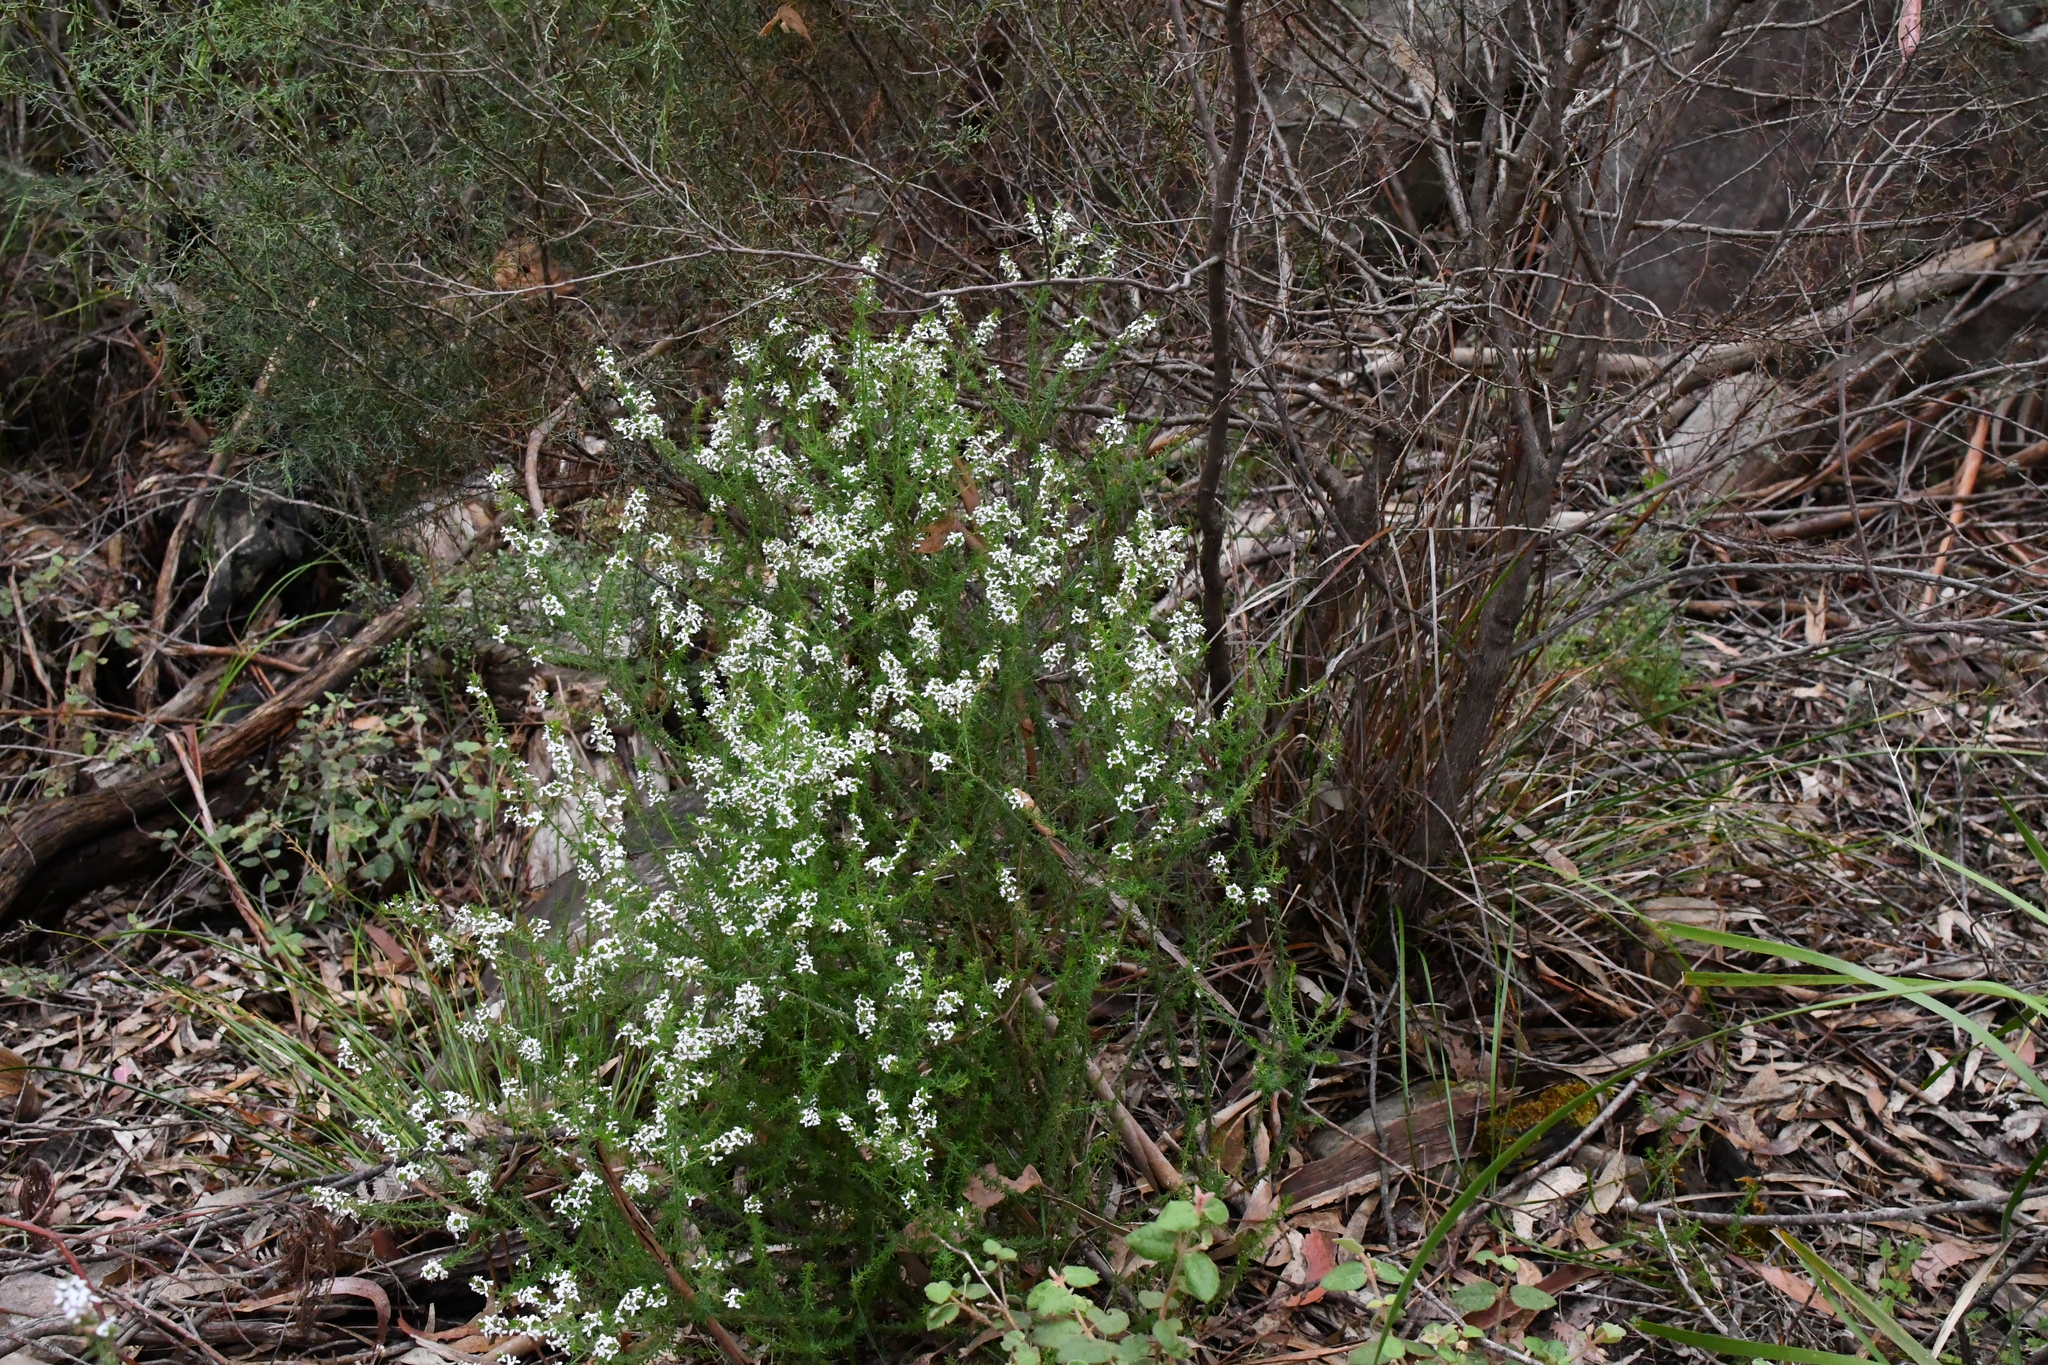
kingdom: Plantae
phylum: Tracheophyta
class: Magnoliopsida
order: Asterales
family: Asteraceae
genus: Olearia
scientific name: Olearia ramulosa
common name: Twiggy daisybush
